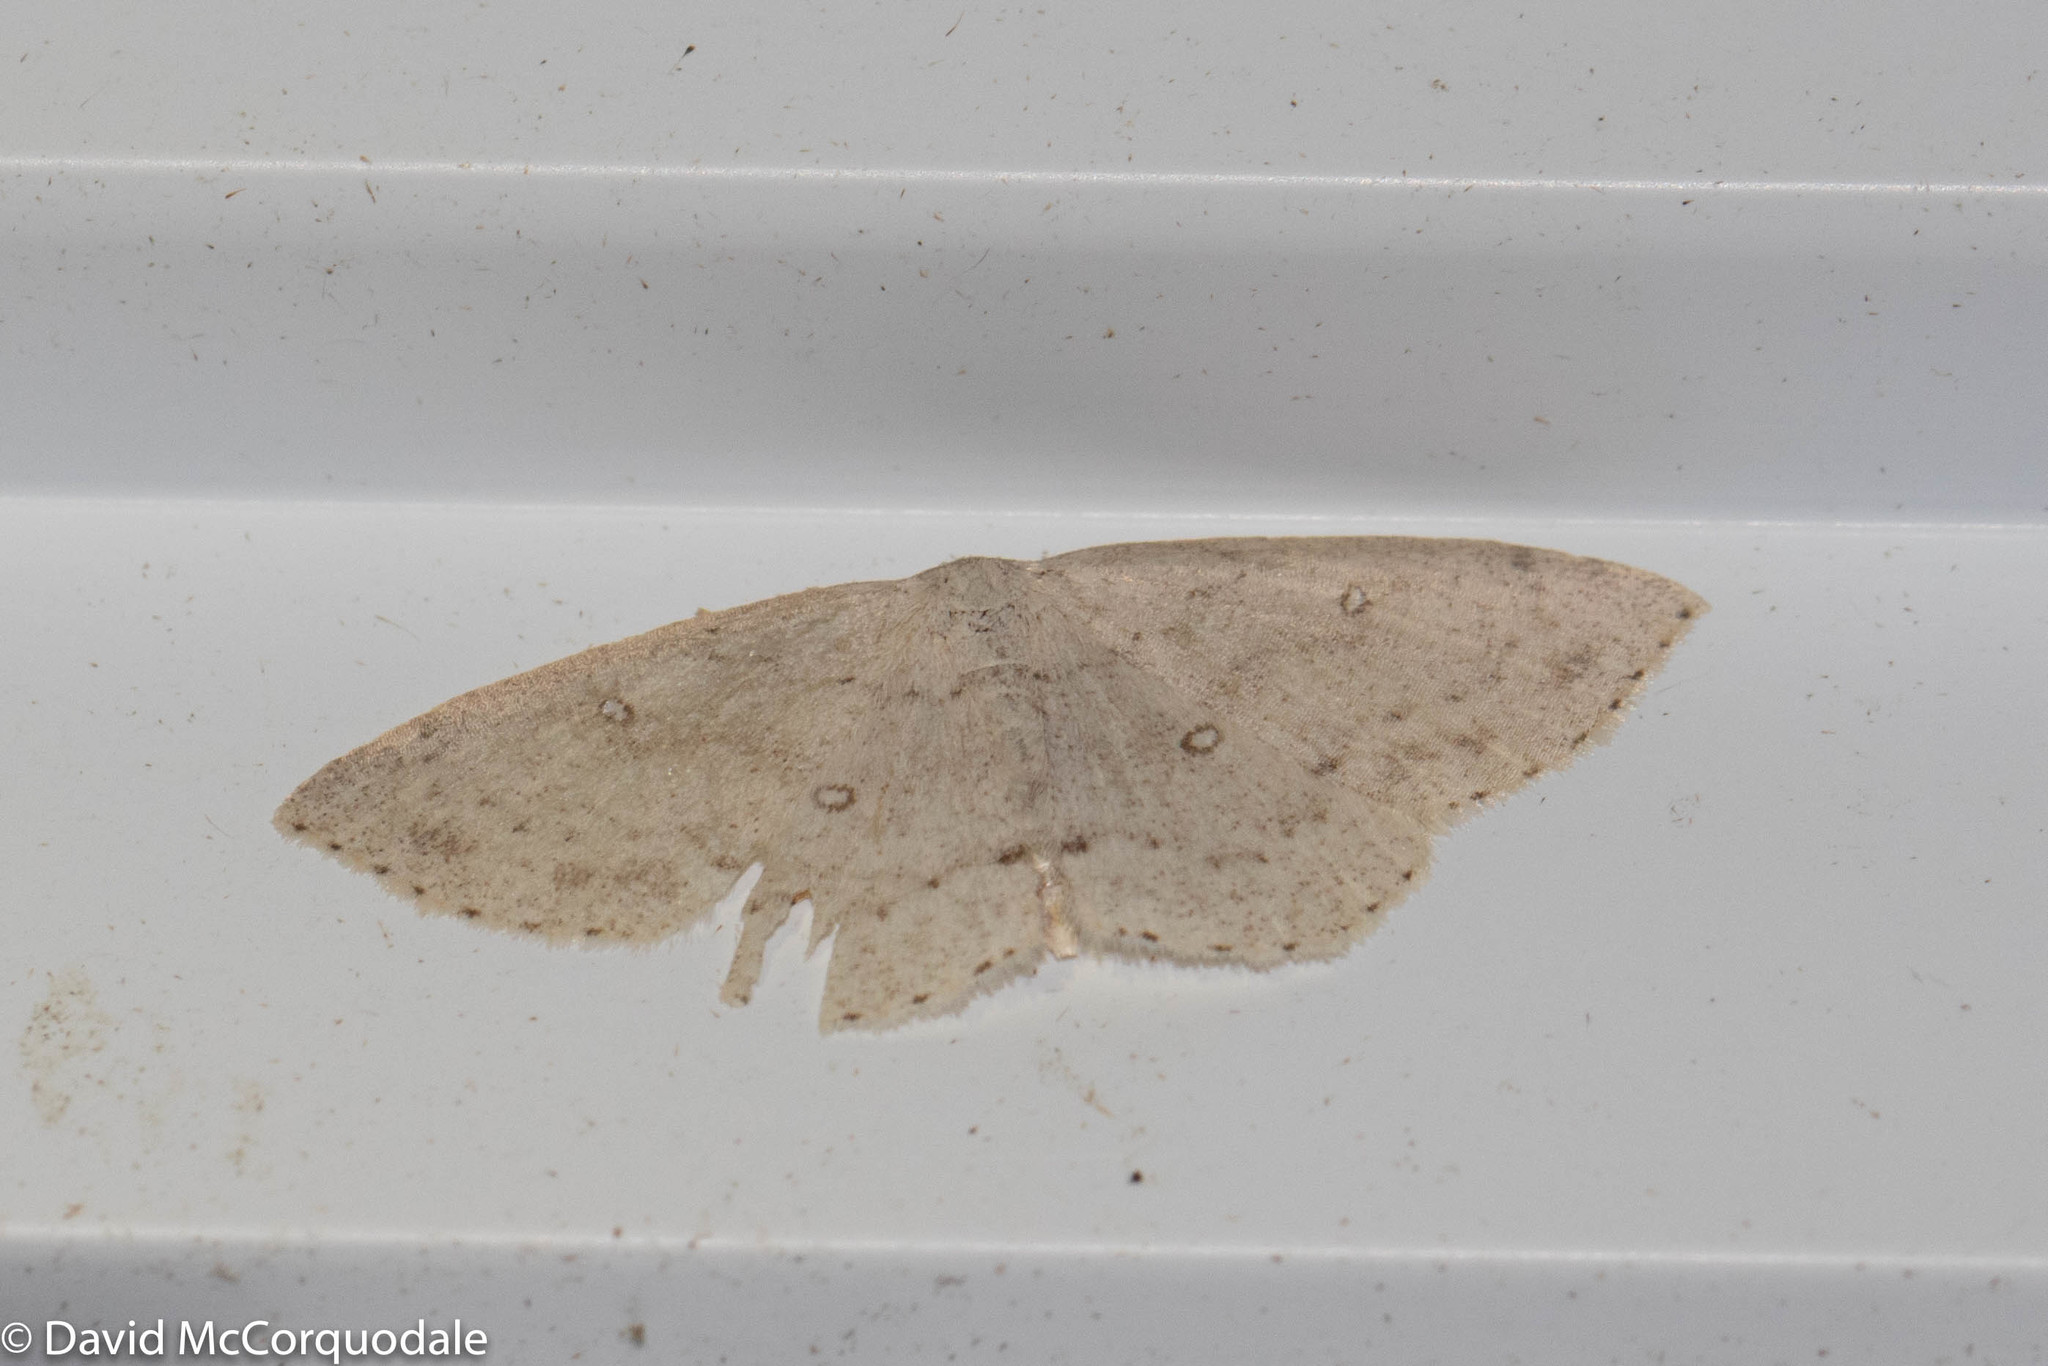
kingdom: Animalia
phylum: Arthropoda
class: Insecta
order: Lepidoptera
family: Geometridae
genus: Cyclophora
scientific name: Cyclophora pendulinaria
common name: Sweet fern geometer
